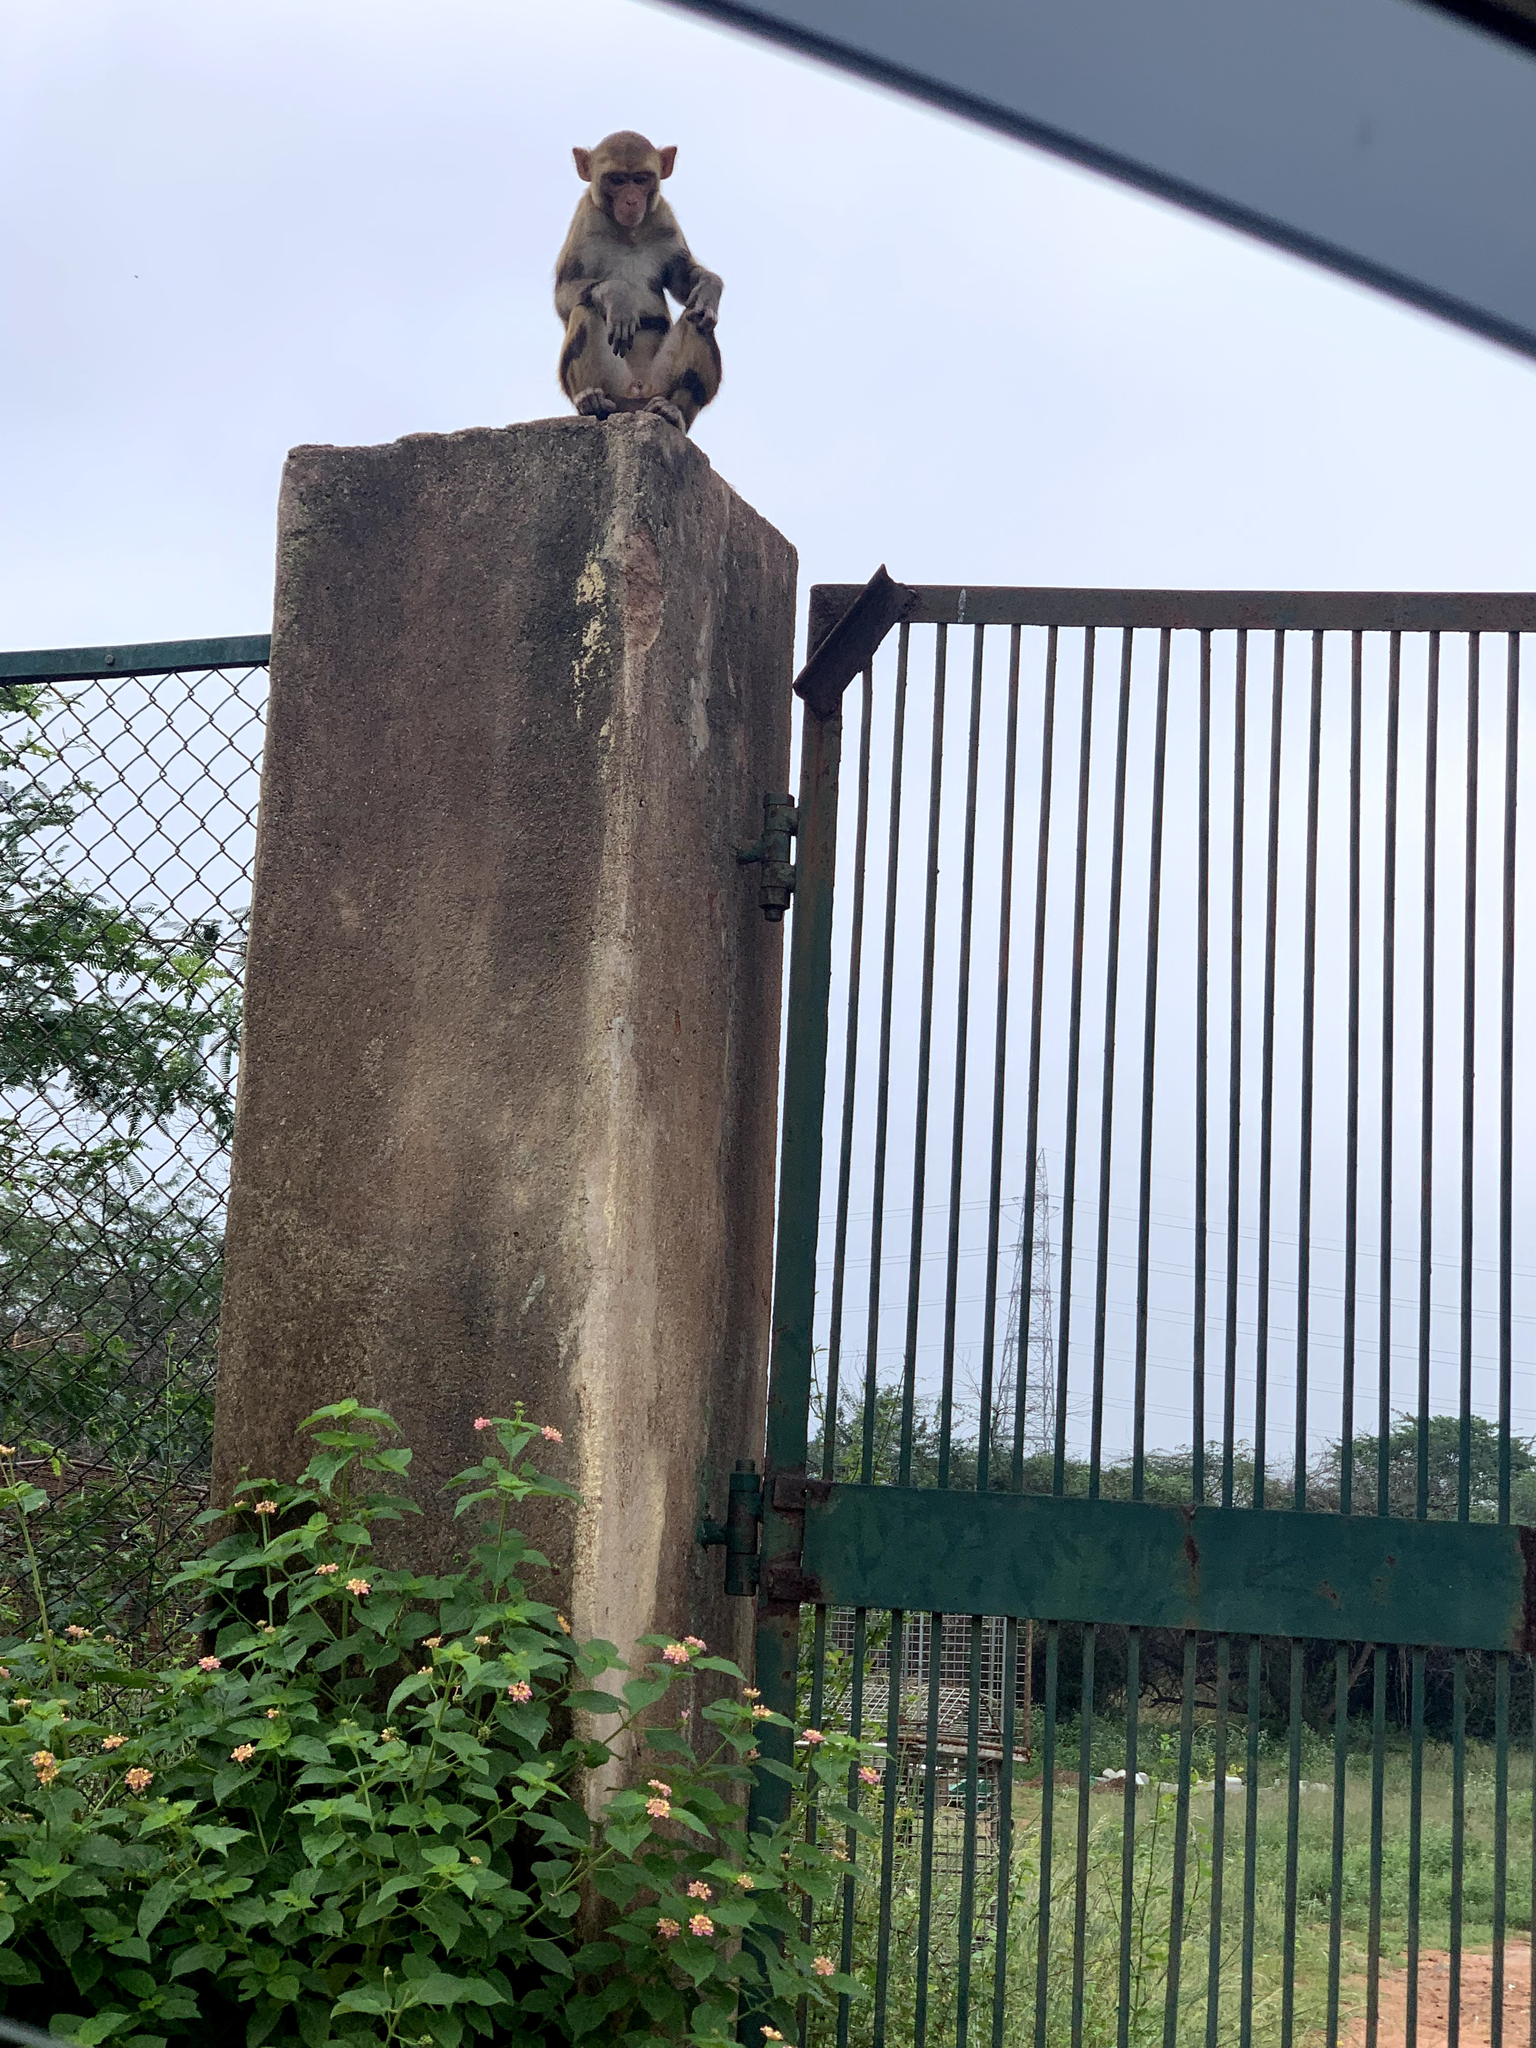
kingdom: Animalia
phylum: Chordata
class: Mammalia
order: Primates
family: Cercopithecidae
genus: Macaca
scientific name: Macaca mulatta
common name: Rhesus monkey
